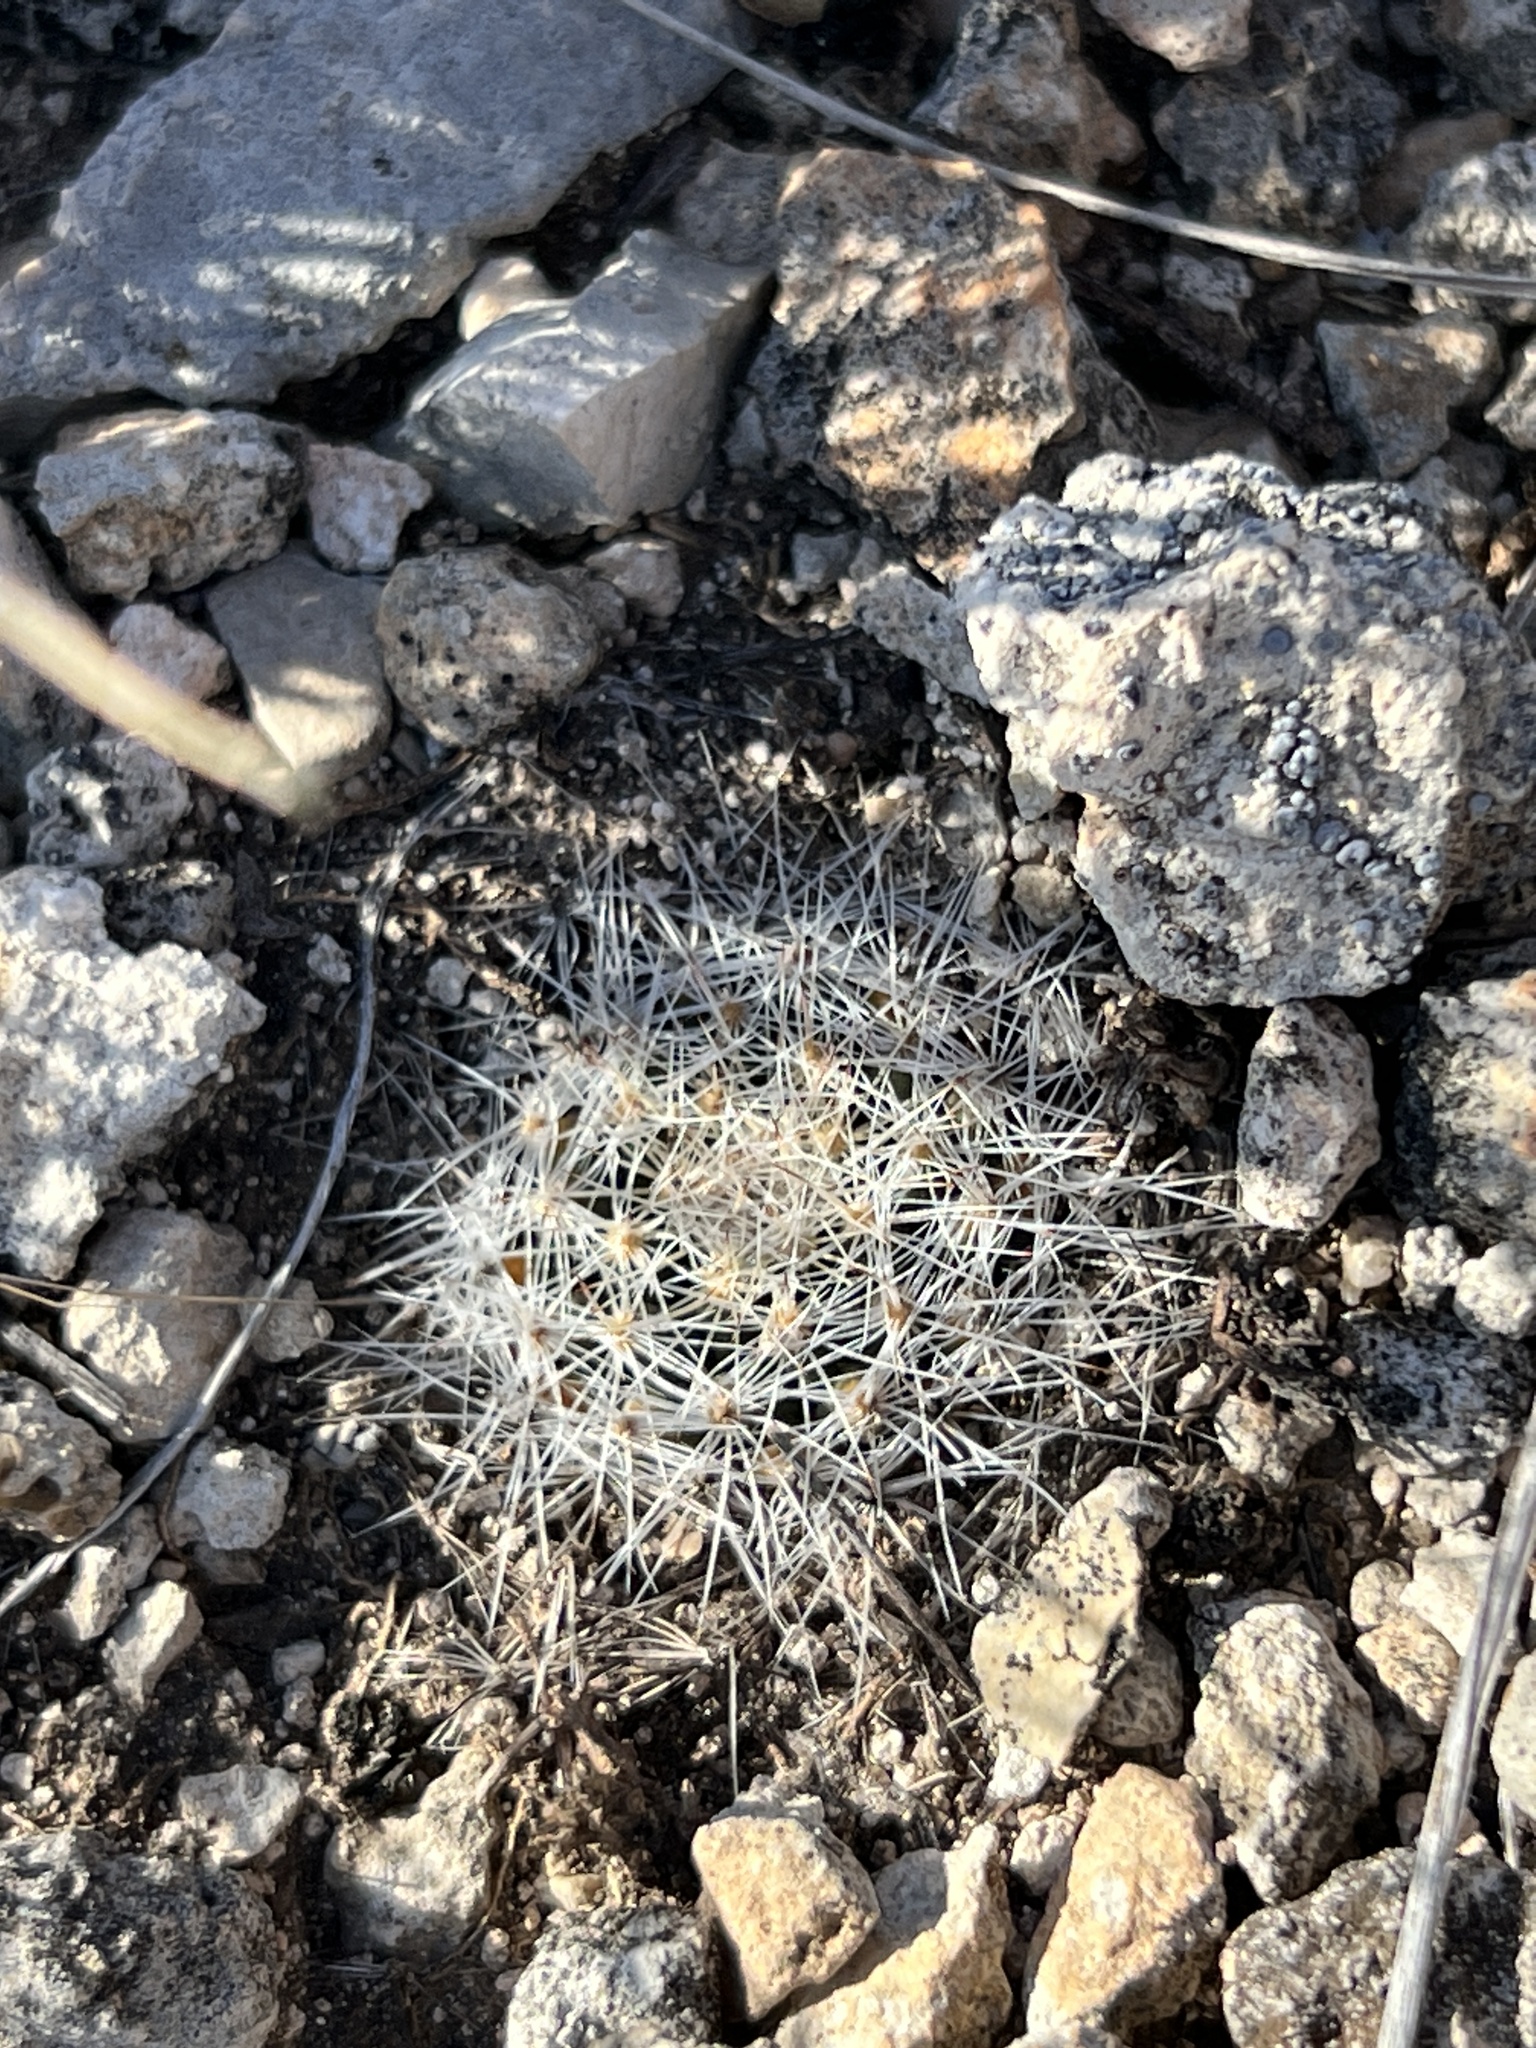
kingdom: Plantae
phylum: Tracheophyta
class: Magnoliopsida
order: Caryophyllales
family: Cactaceae
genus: Mammillaria
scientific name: Mammillaria heyderi
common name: Little nipple cactus
